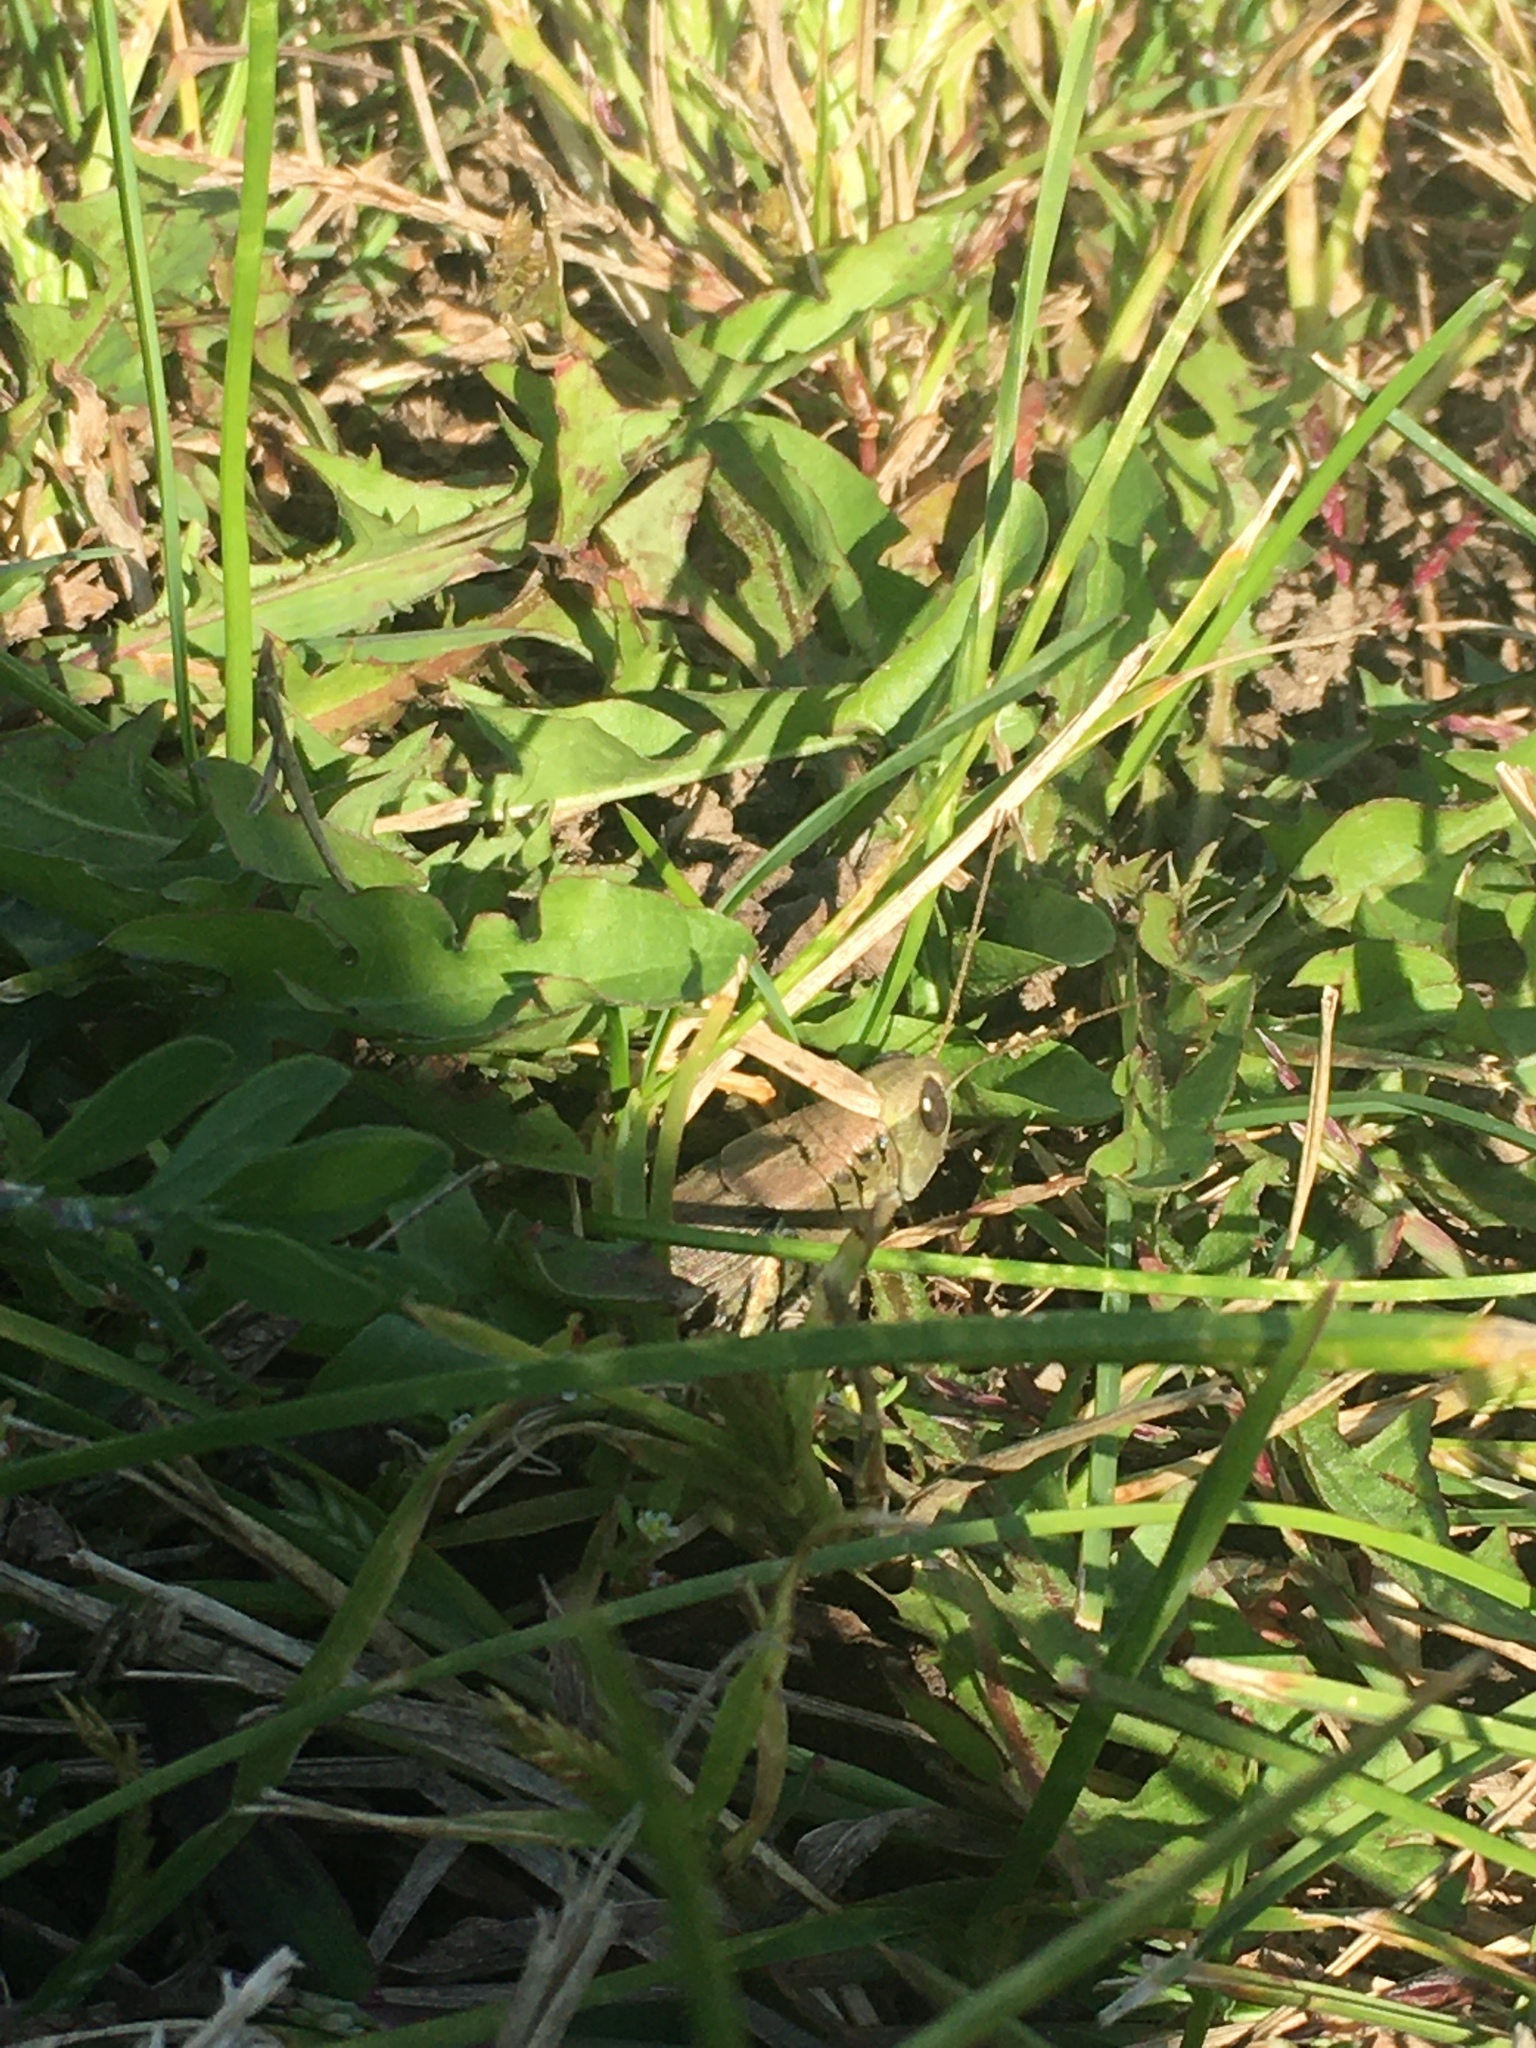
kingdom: Animalia
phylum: Arthropoda
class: Insecta
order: Orthoptera
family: Acrididae
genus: Melanoplus
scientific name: Melanoplus differentialis
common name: Differential grasshopper
